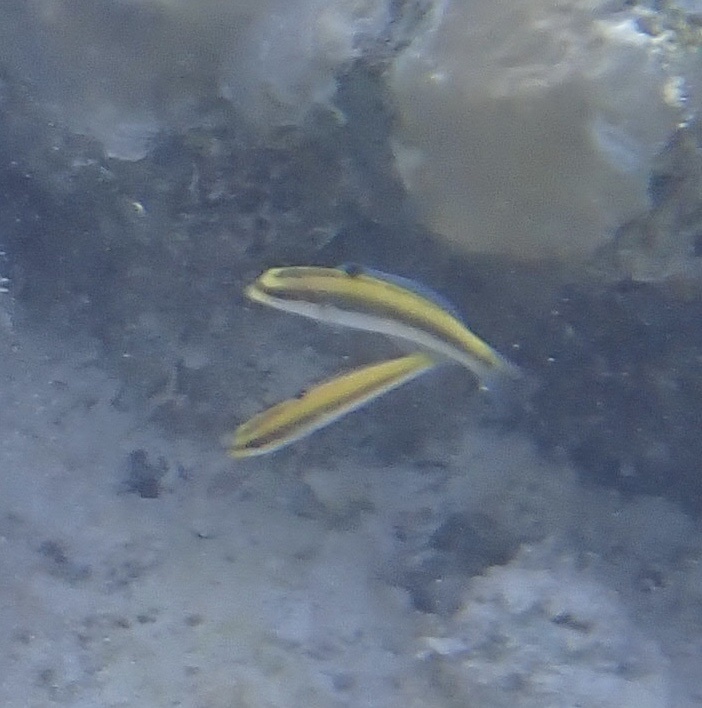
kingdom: Animalia
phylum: Chordata
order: Perciformes
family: Labridae
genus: Thalassoma
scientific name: Thalassoma bifasciatum
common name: Bluehead wrasse
